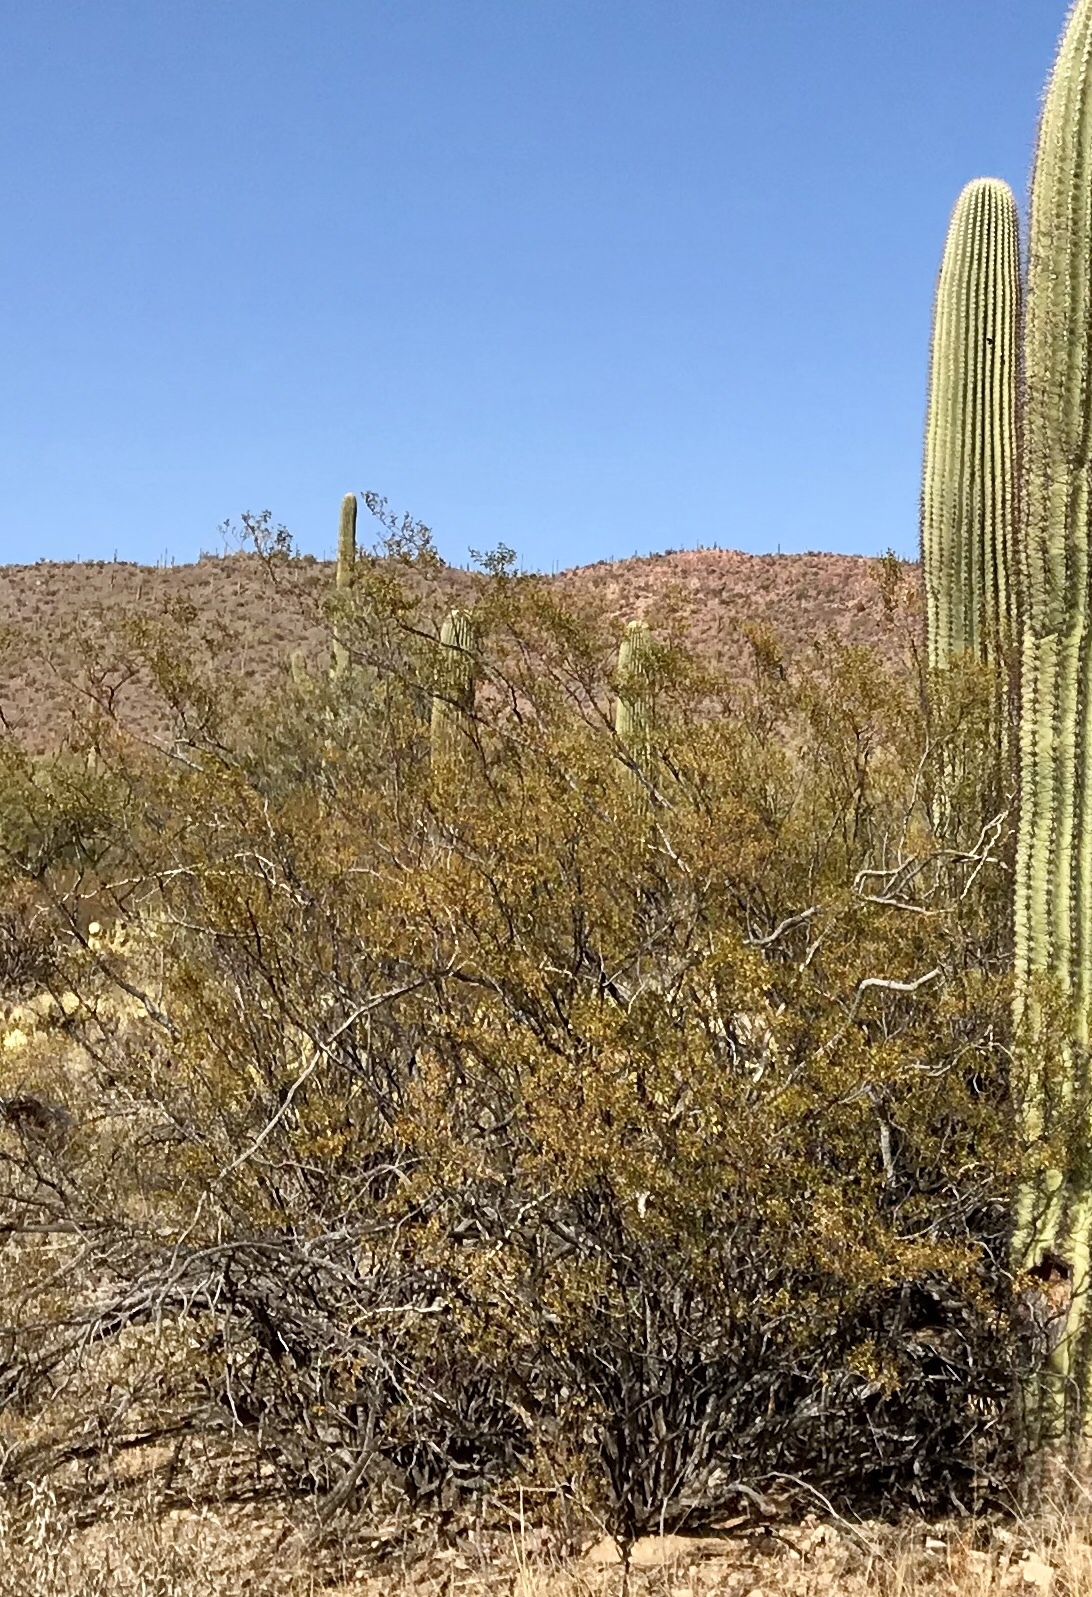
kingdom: Plantae
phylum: Tracheophyta
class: Magnoliopsida
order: Zygophyllales
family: Zygophyllaceae
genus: Larrea
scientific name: Larrea tridentata
